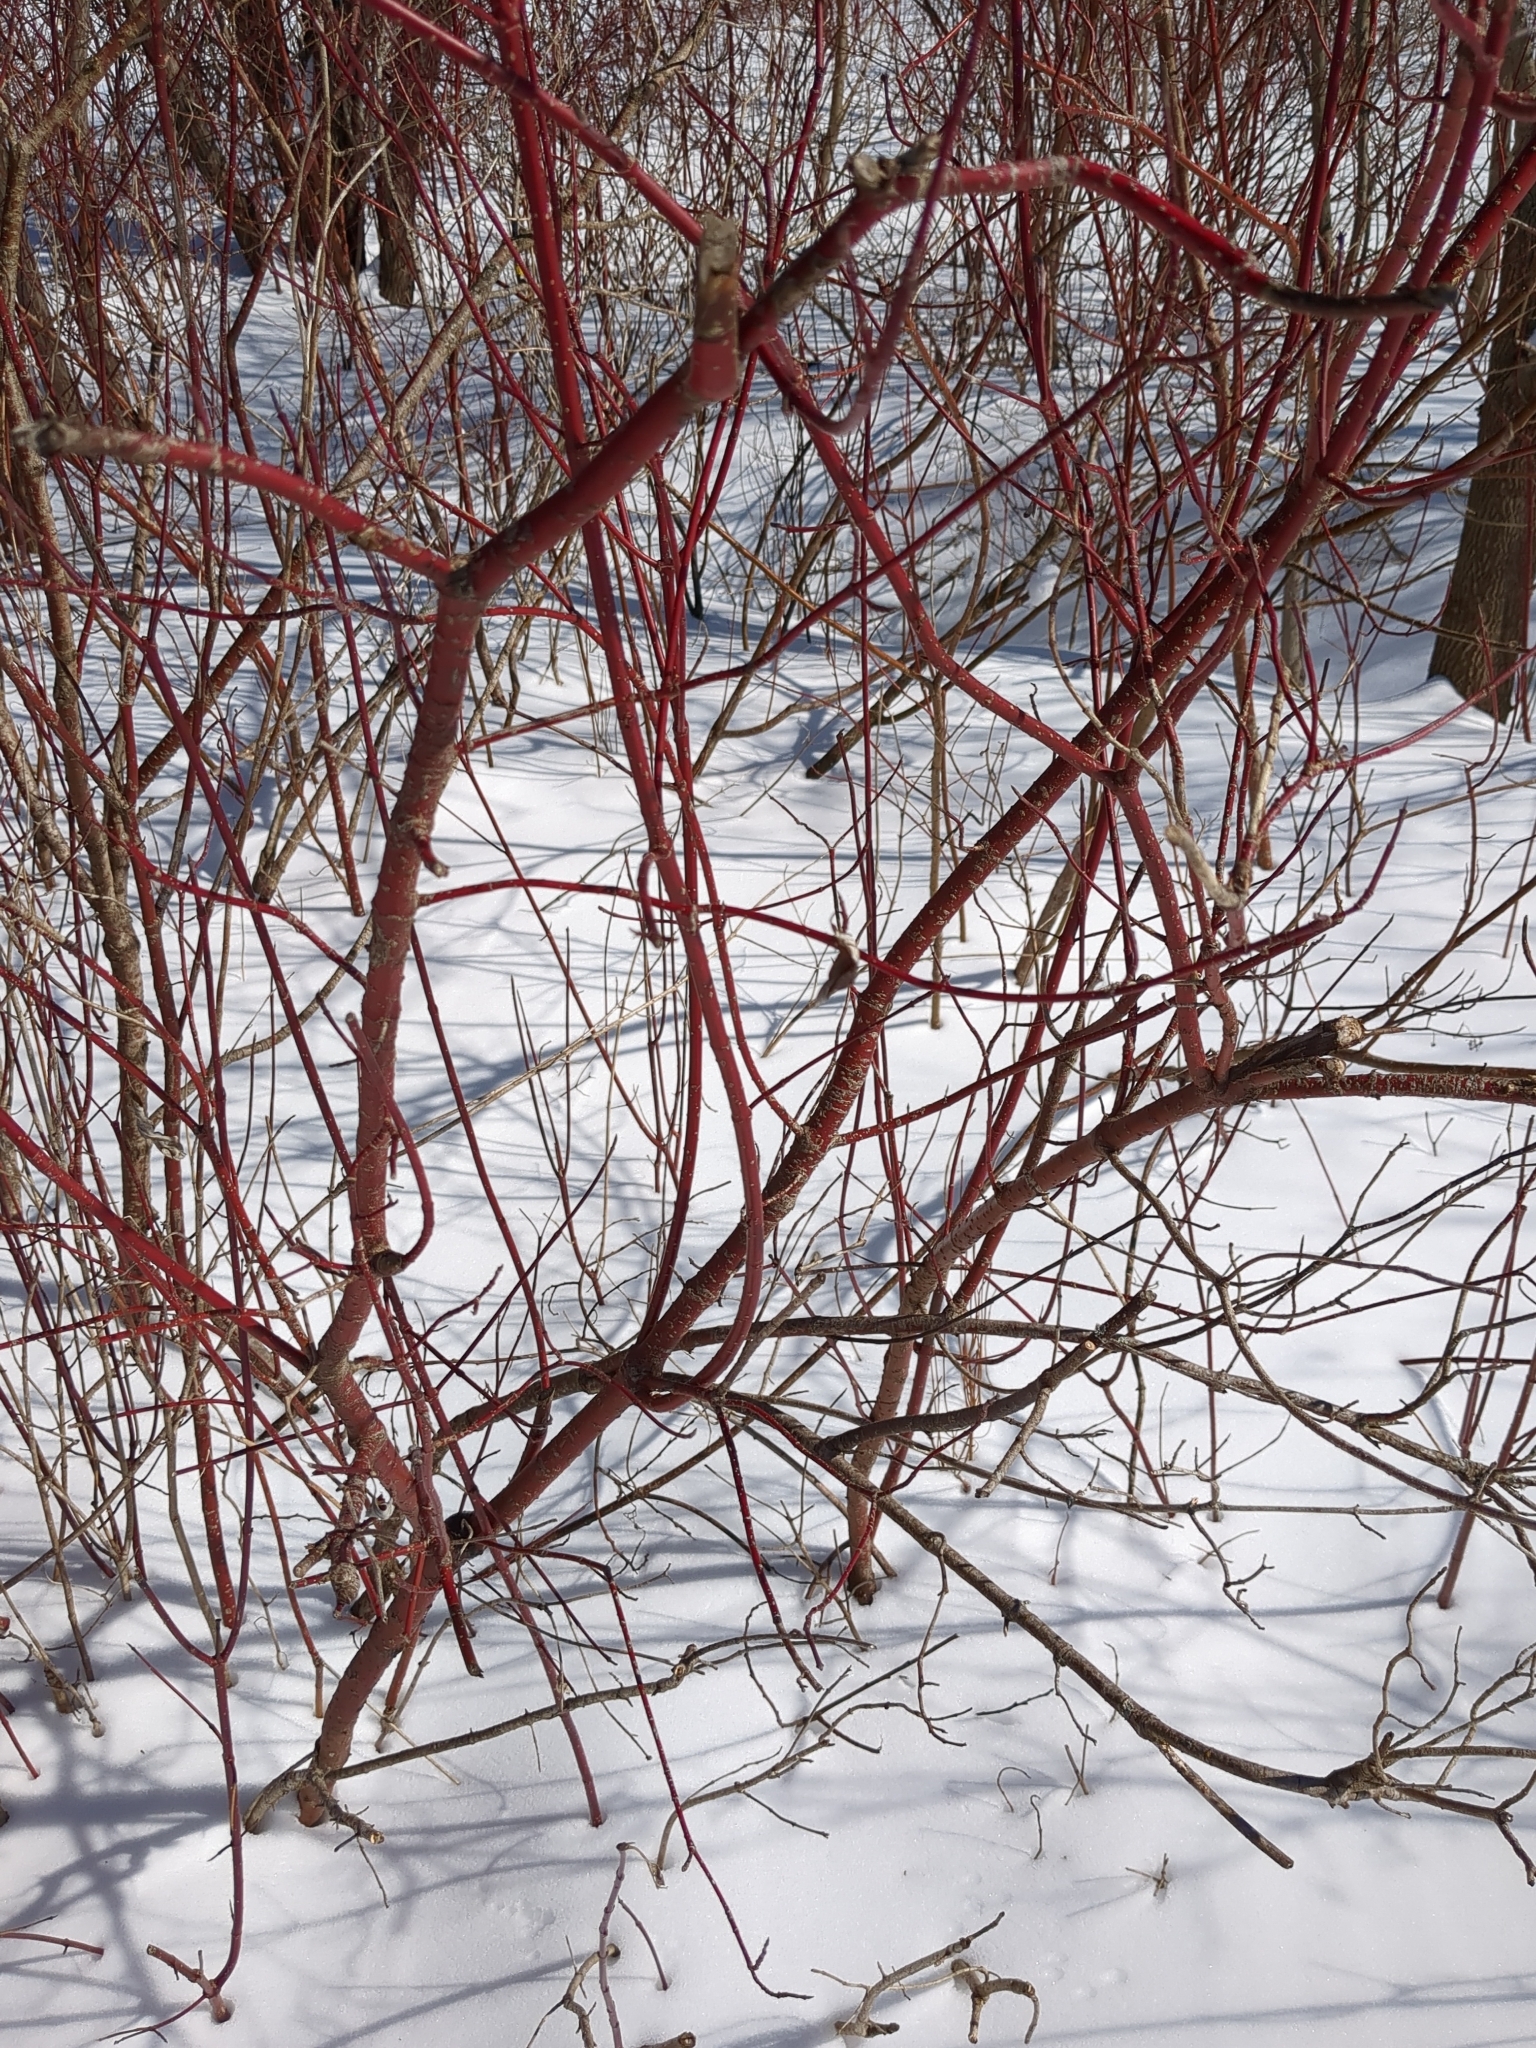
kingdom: Plantae
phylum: Tracheophyta
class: Magnoliopsida
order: Cornales
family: Cornaceae
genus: Cornus
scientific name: Cornus sericea
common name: Red-osier dogwood
